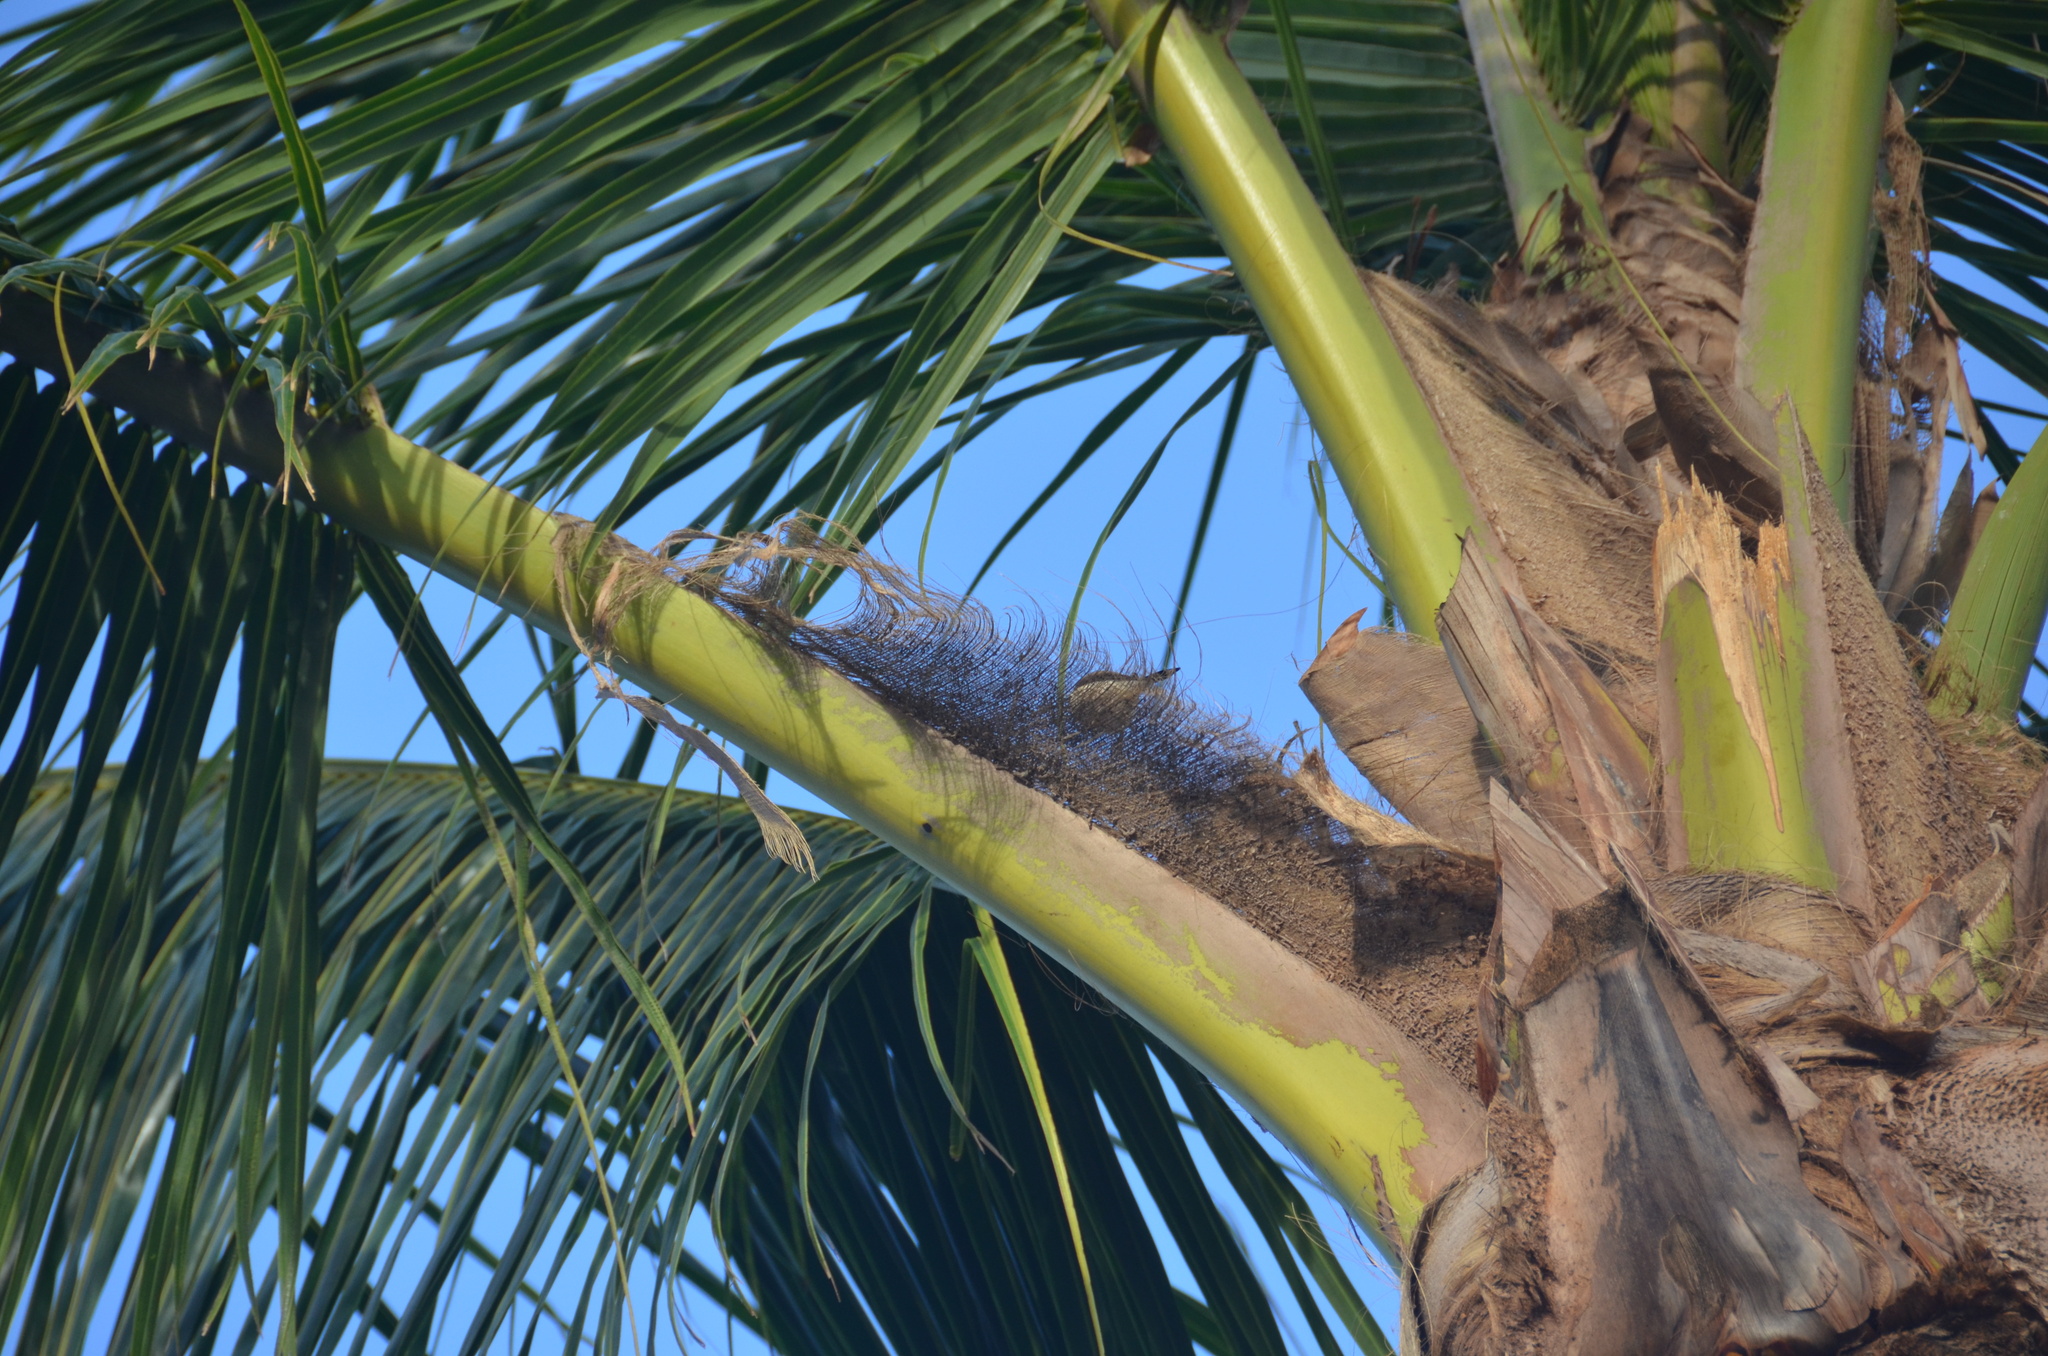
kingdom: Animalia
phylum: Chordata
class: Aves
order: Passeriformes
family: Estrildidae
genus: Euodice
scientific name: Euodice cantans
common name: African silverbill
